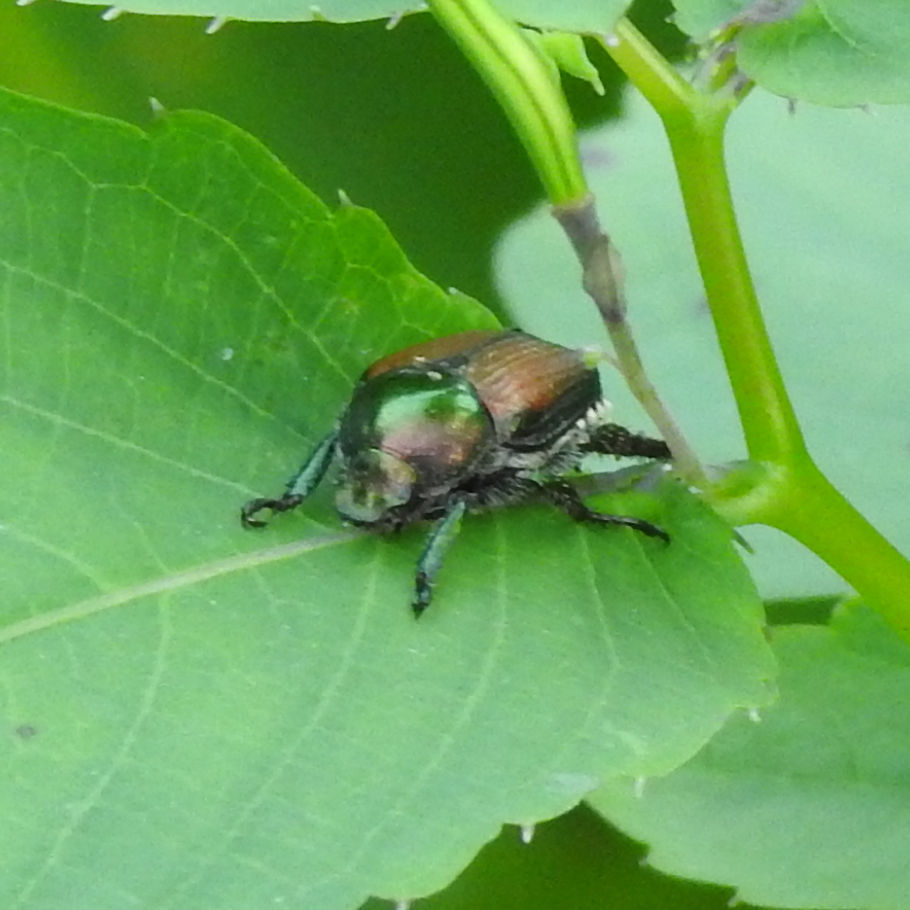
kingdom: Animalia
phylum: Arthropoda
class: Insecta
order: Coleoptera
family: Scarabaeidae
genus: Popillia
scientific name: Popillia japonica
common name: Japanese beetle
